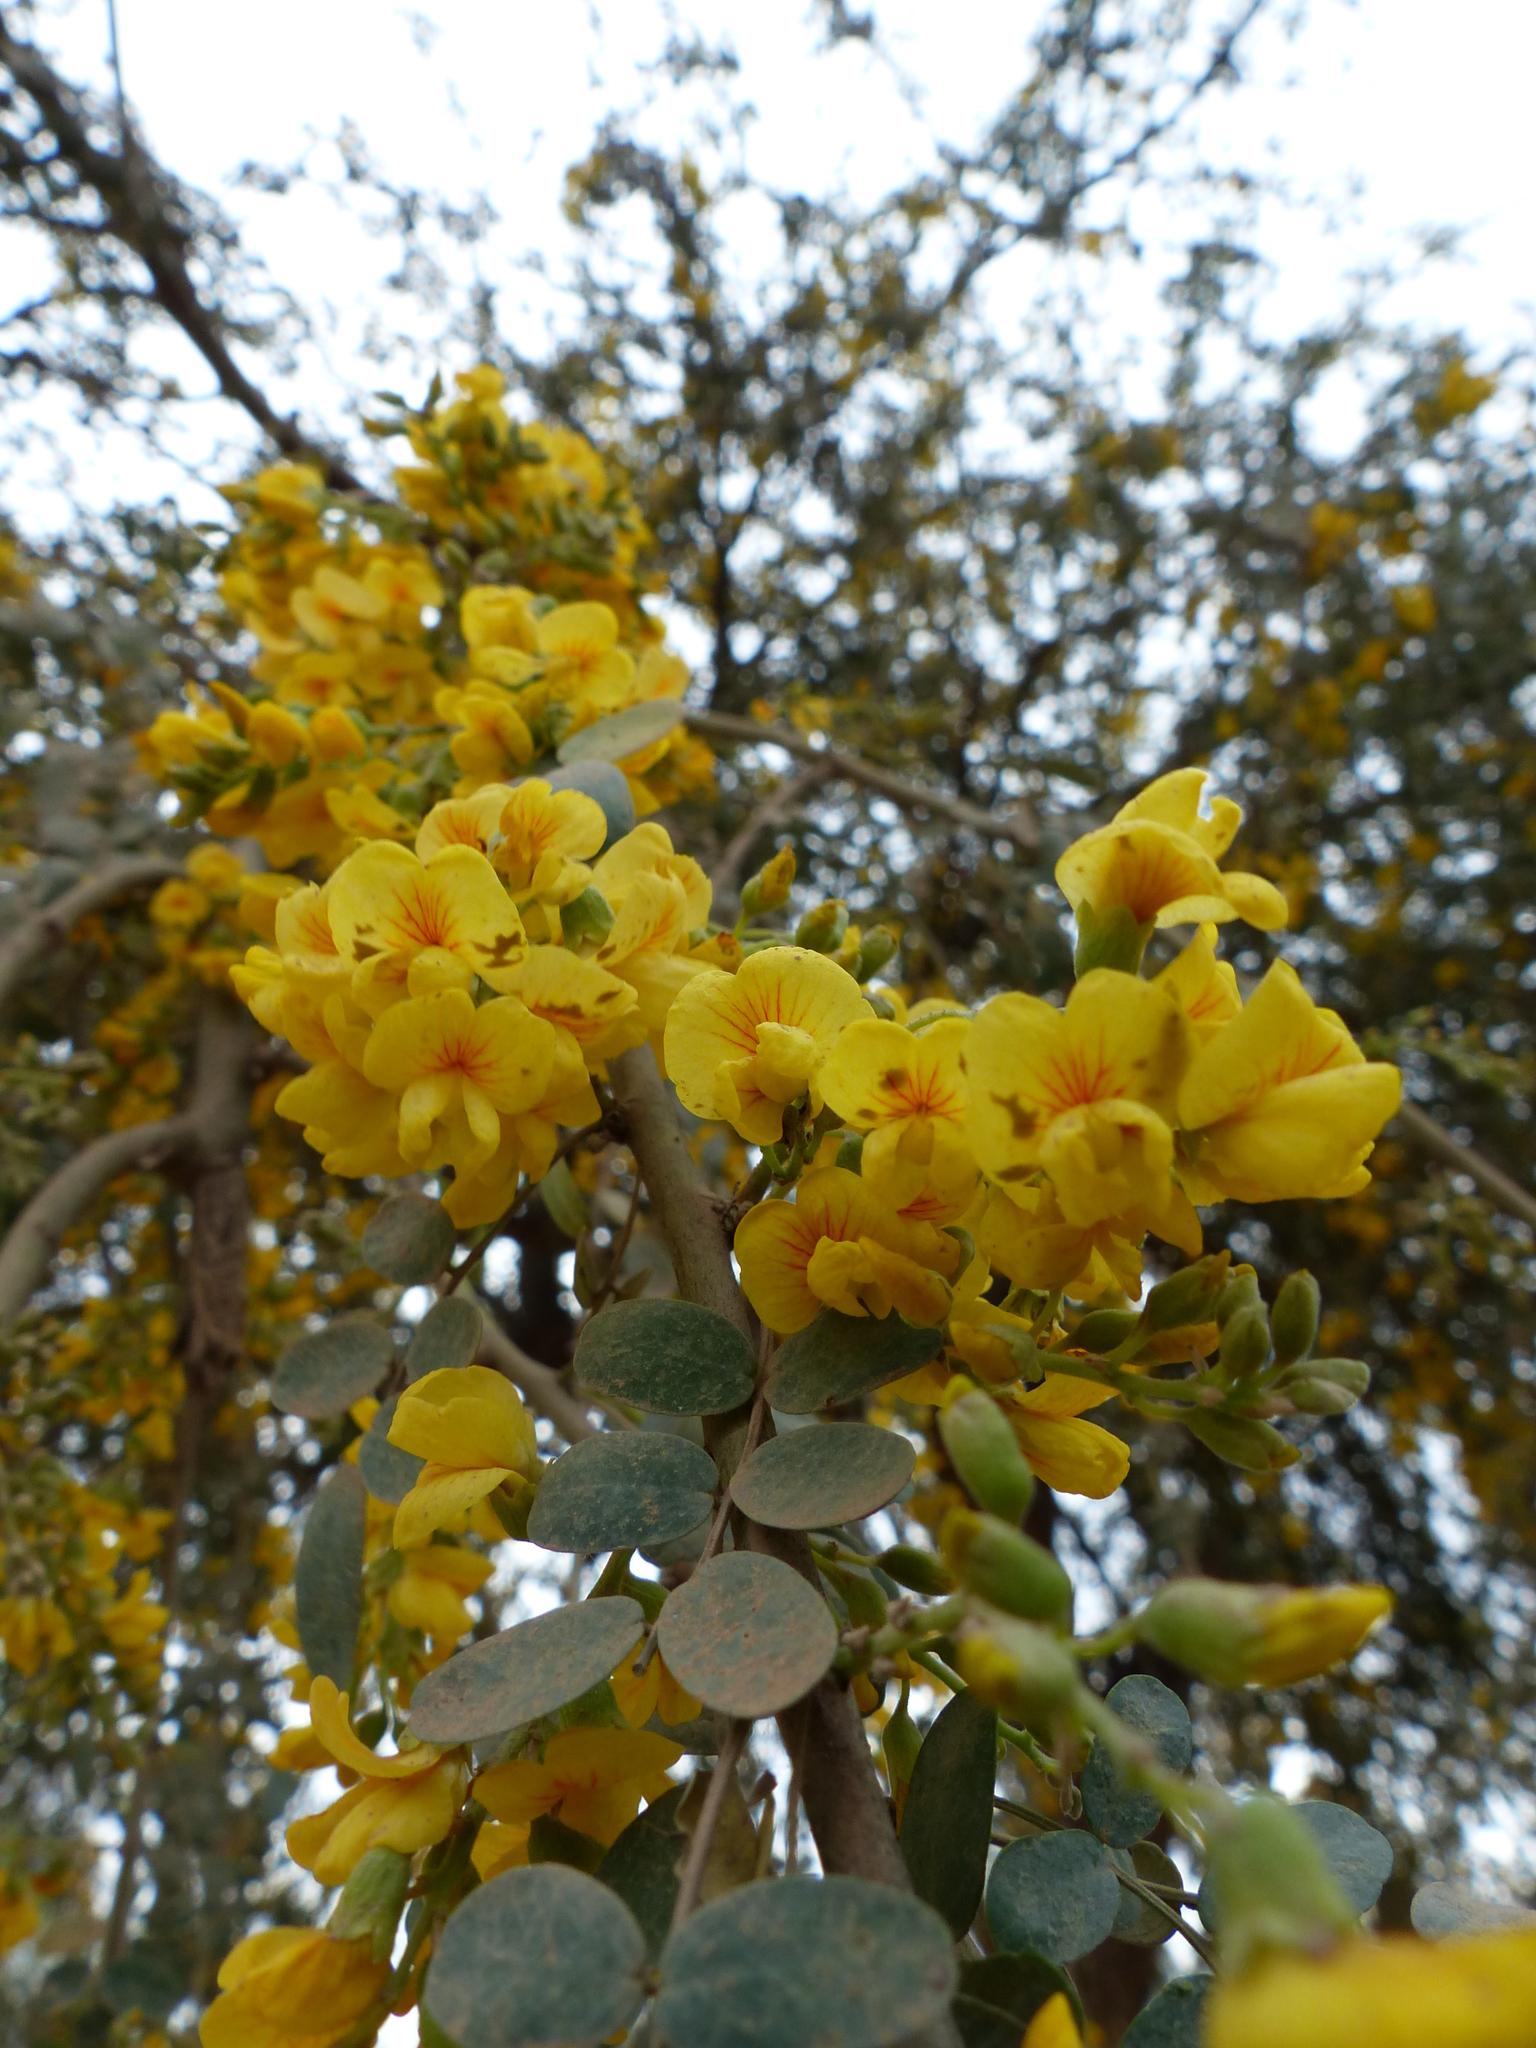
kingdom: Plantae
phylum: Tracheophyta
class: Magnoliopsida
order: Fabales
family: Fabaceae
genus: Geoffroea
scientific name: Geoffroea decorticans
